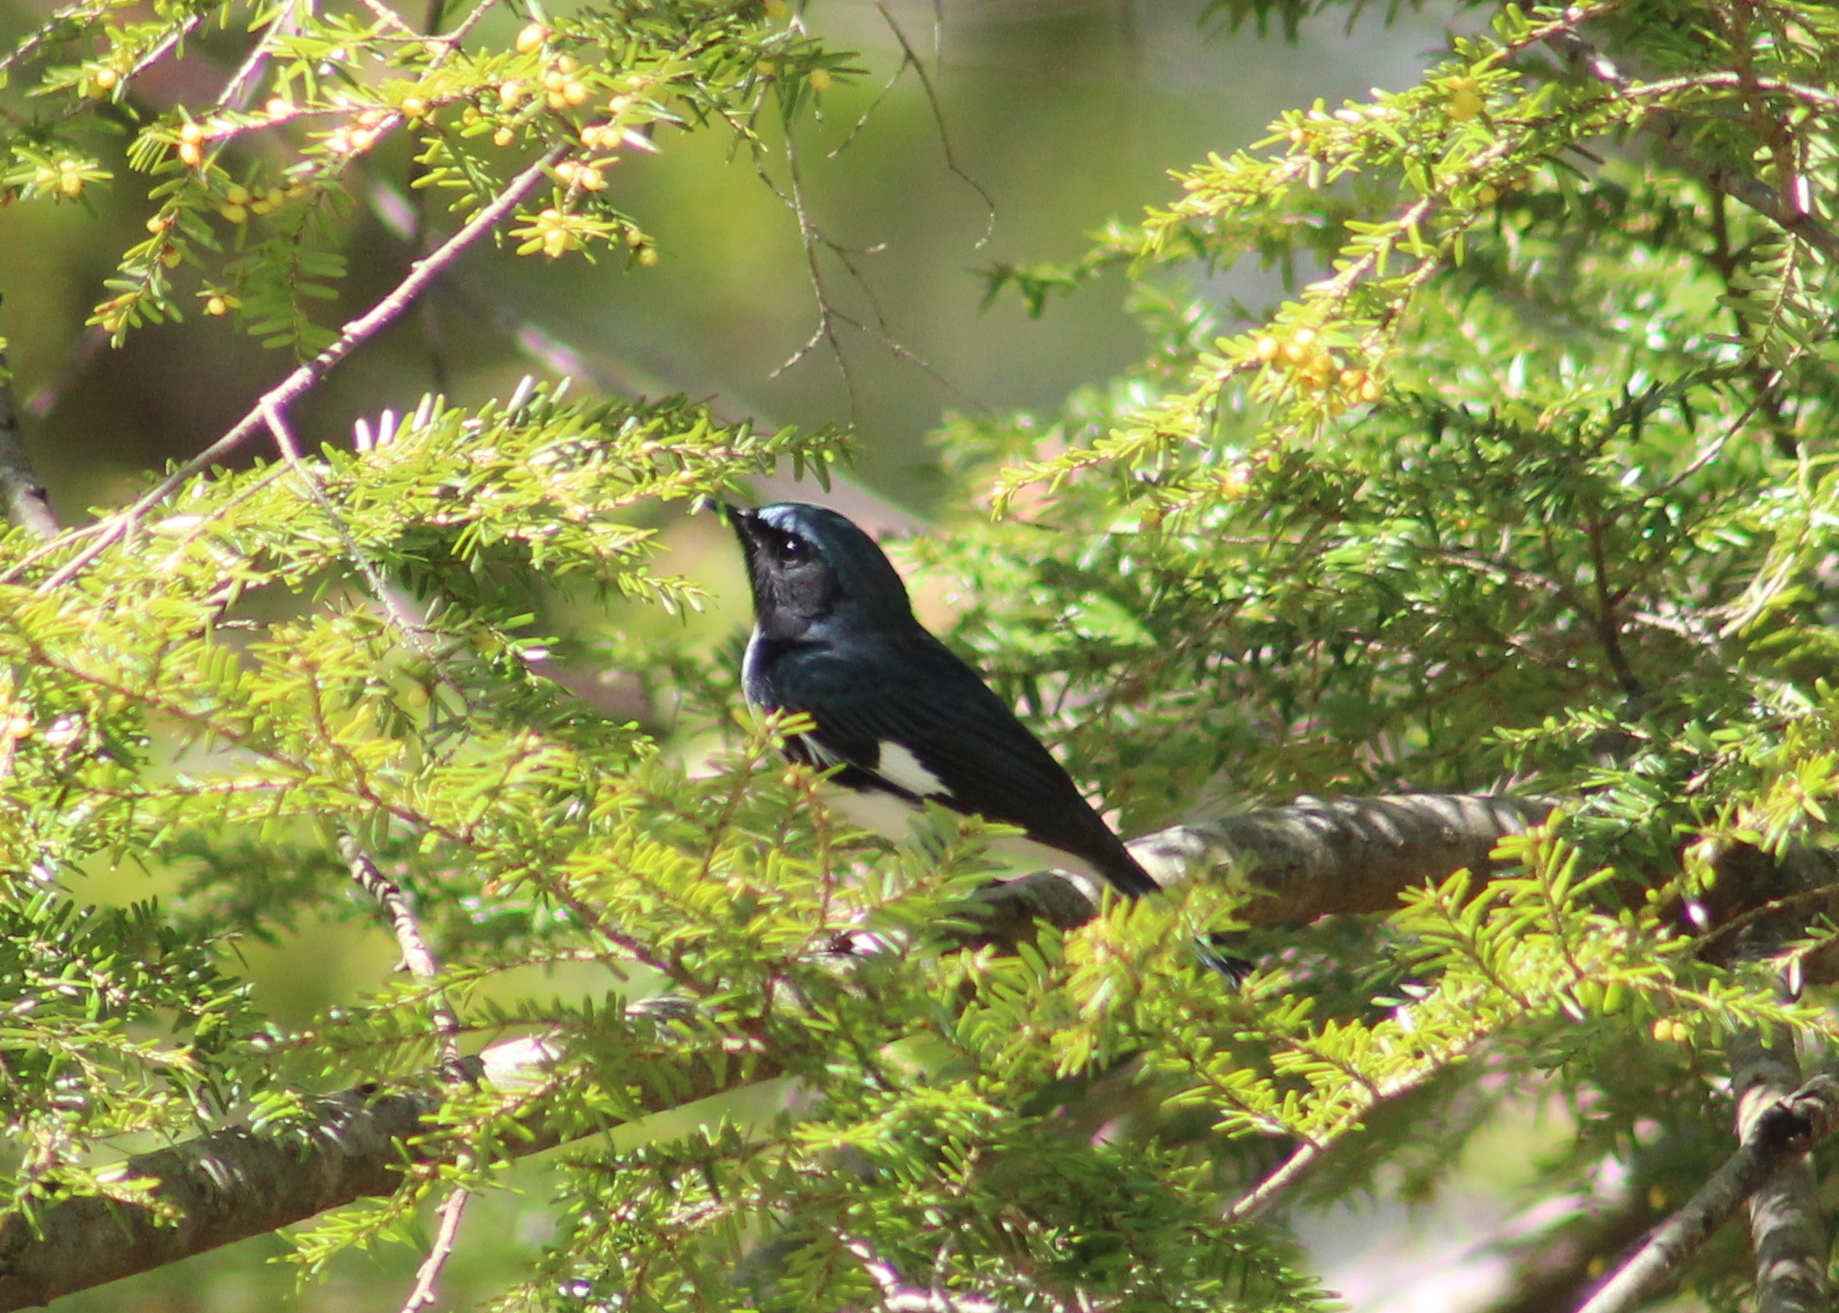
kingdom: Animalia
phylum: Chordata
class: Aves
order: Passeriformes
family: Parulidae
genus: Setophaga
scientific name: Setophaga caerulescens
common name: Black-throated blue warbler
